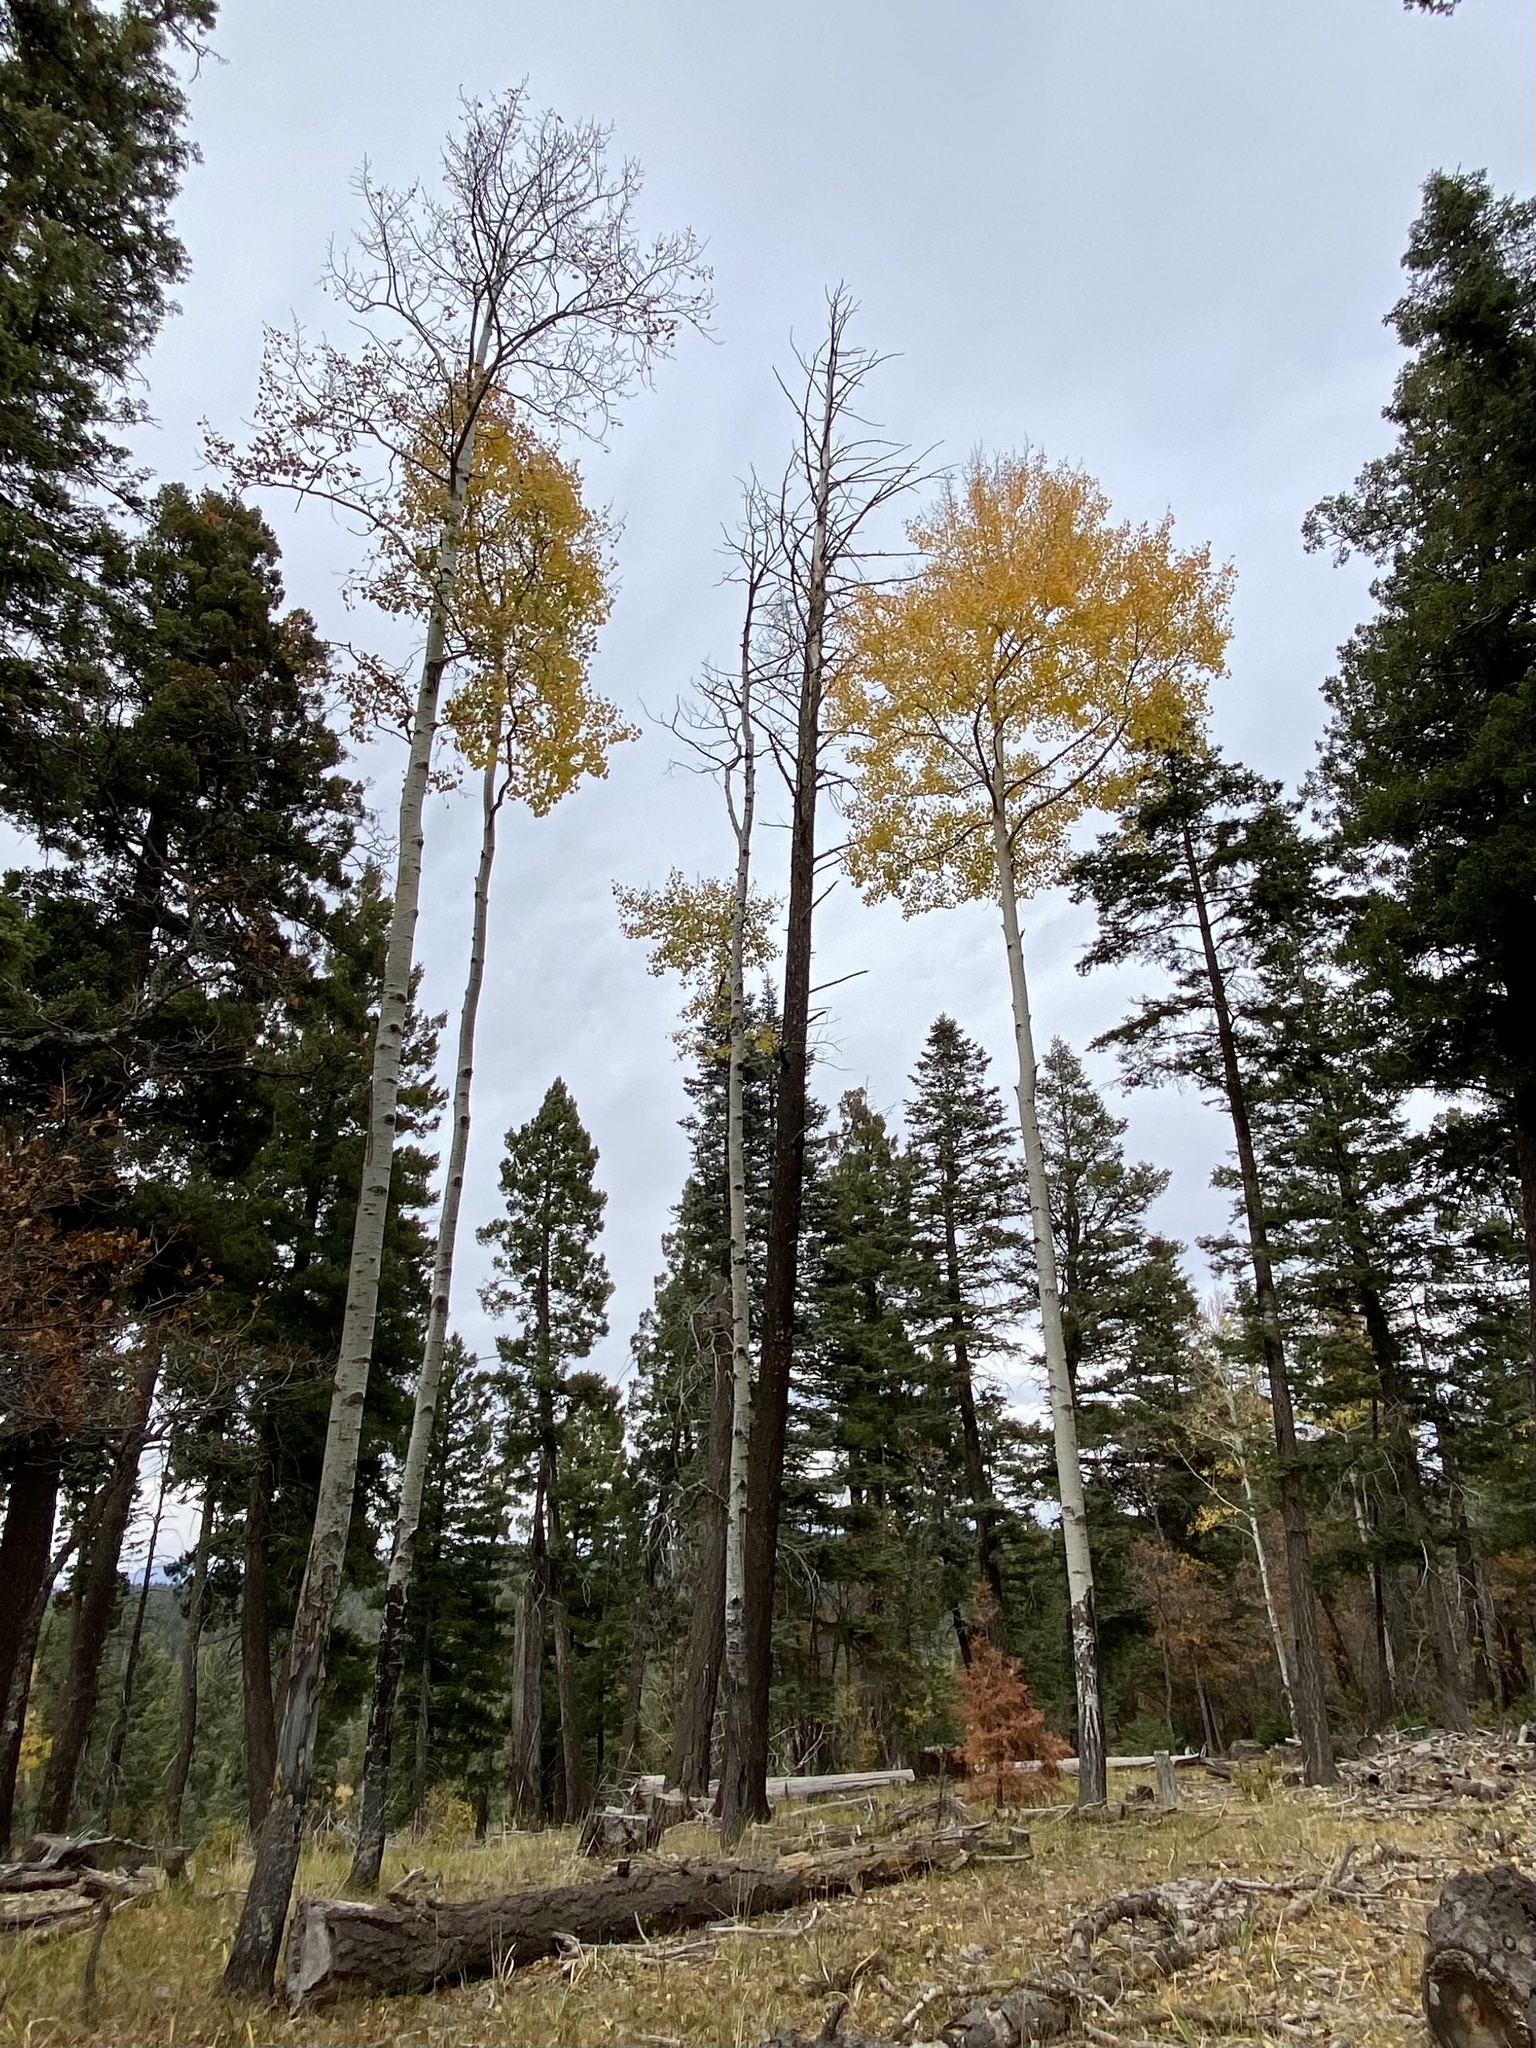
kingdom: Plantae
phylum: Tracheophyta
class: Magnoliopsida
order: Malpighiales
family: Salicaceae
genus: Populus
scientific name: Populus tremuloides
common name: Quaking aspen
